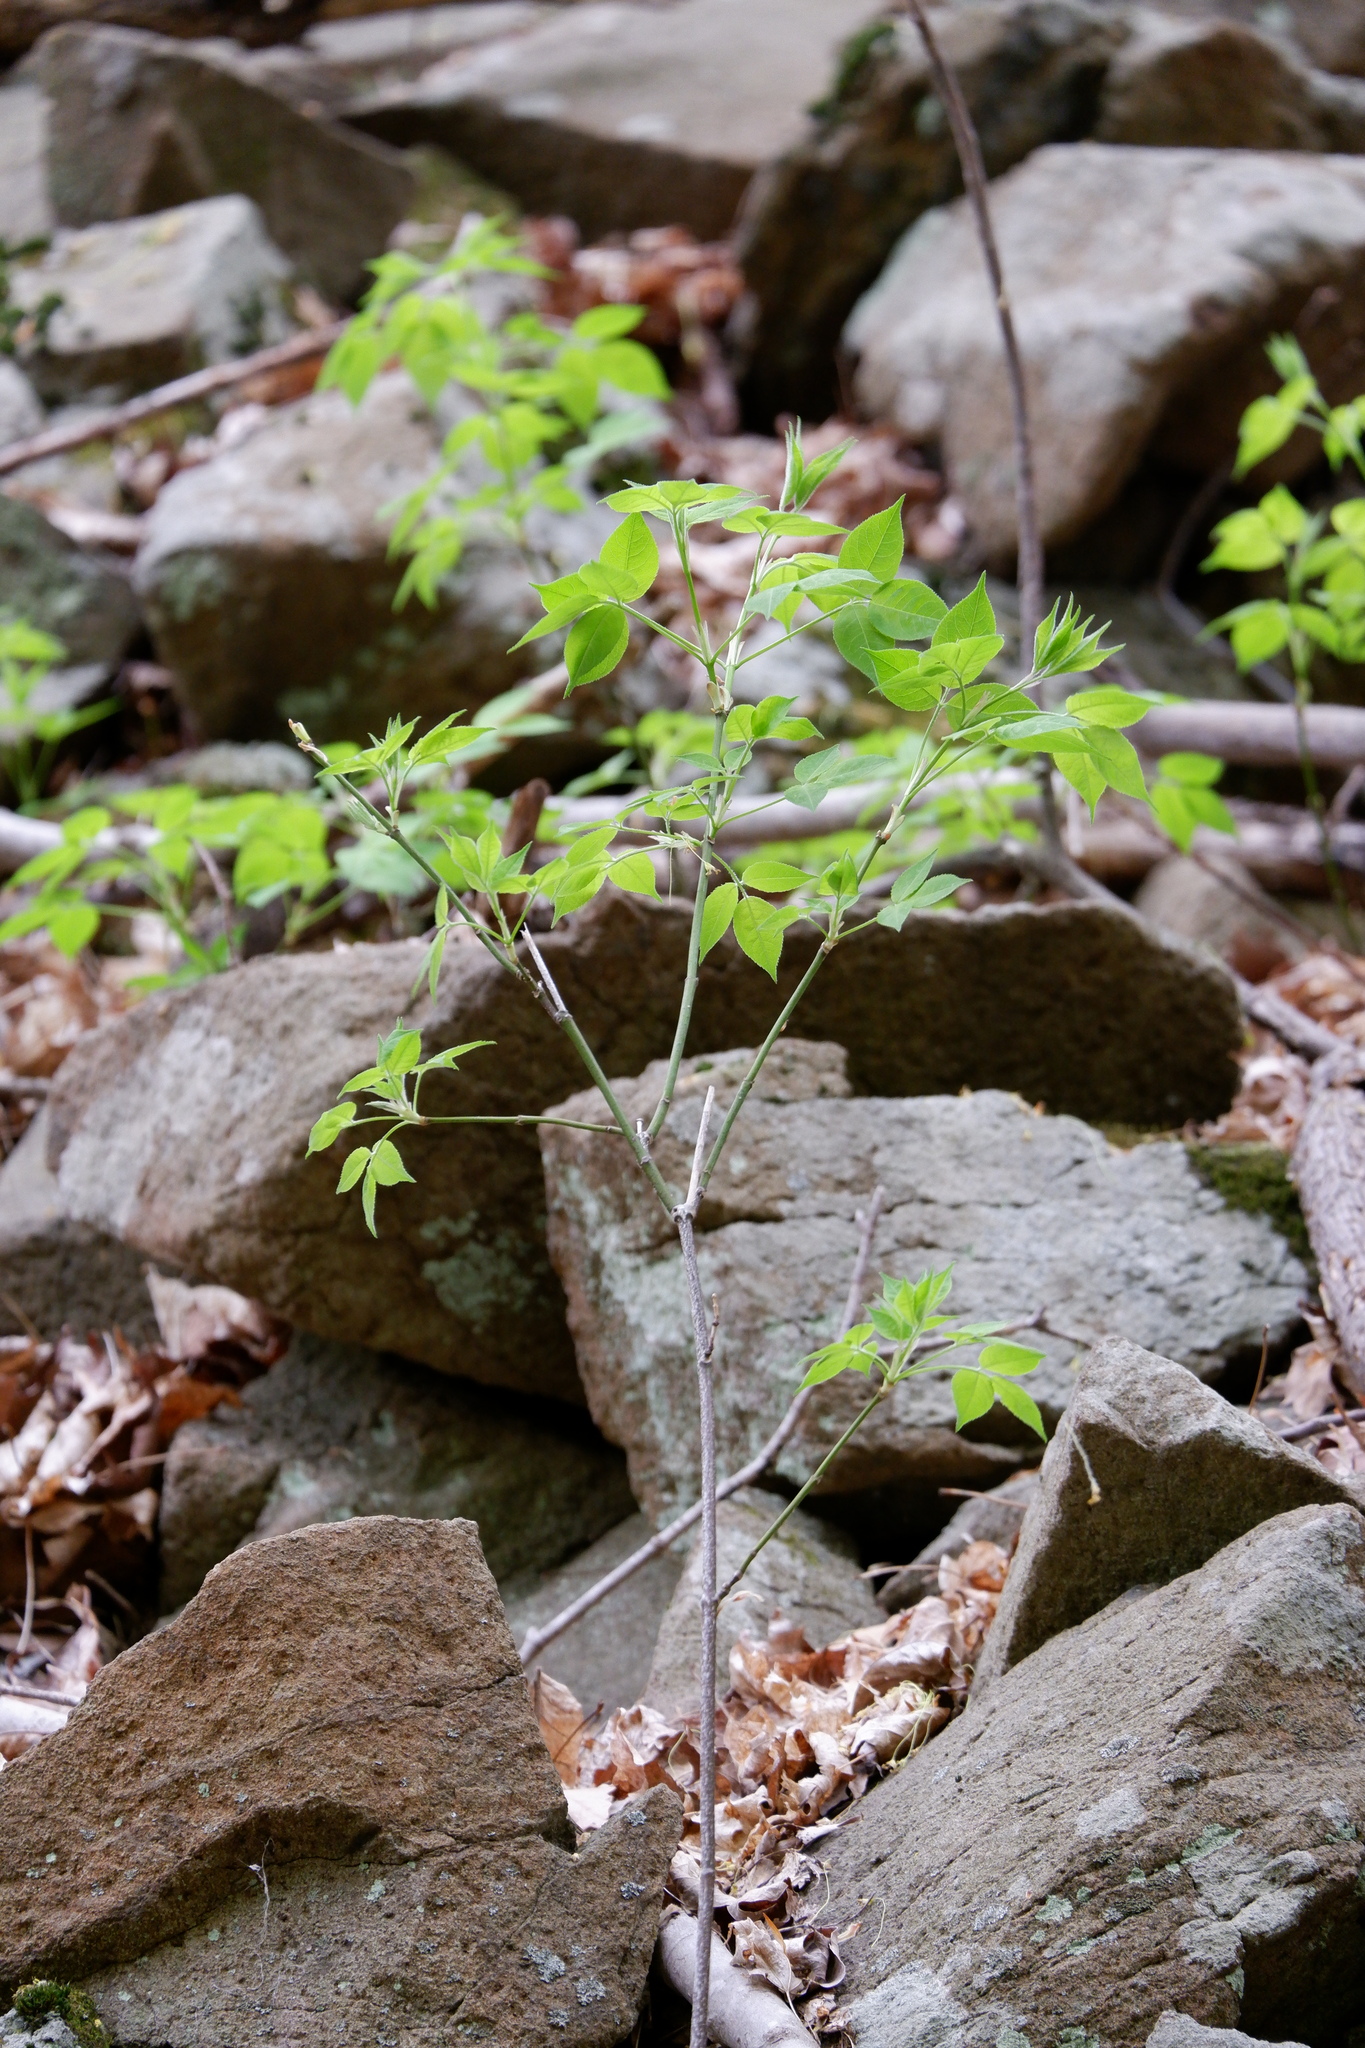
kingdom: Plantae
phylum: Tracheophyta
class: Magnoliopsida
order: Crossosomatales
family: Staphyleaceae
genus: Staphylea
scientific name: Staphylea trifolia
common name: American bladdernut
